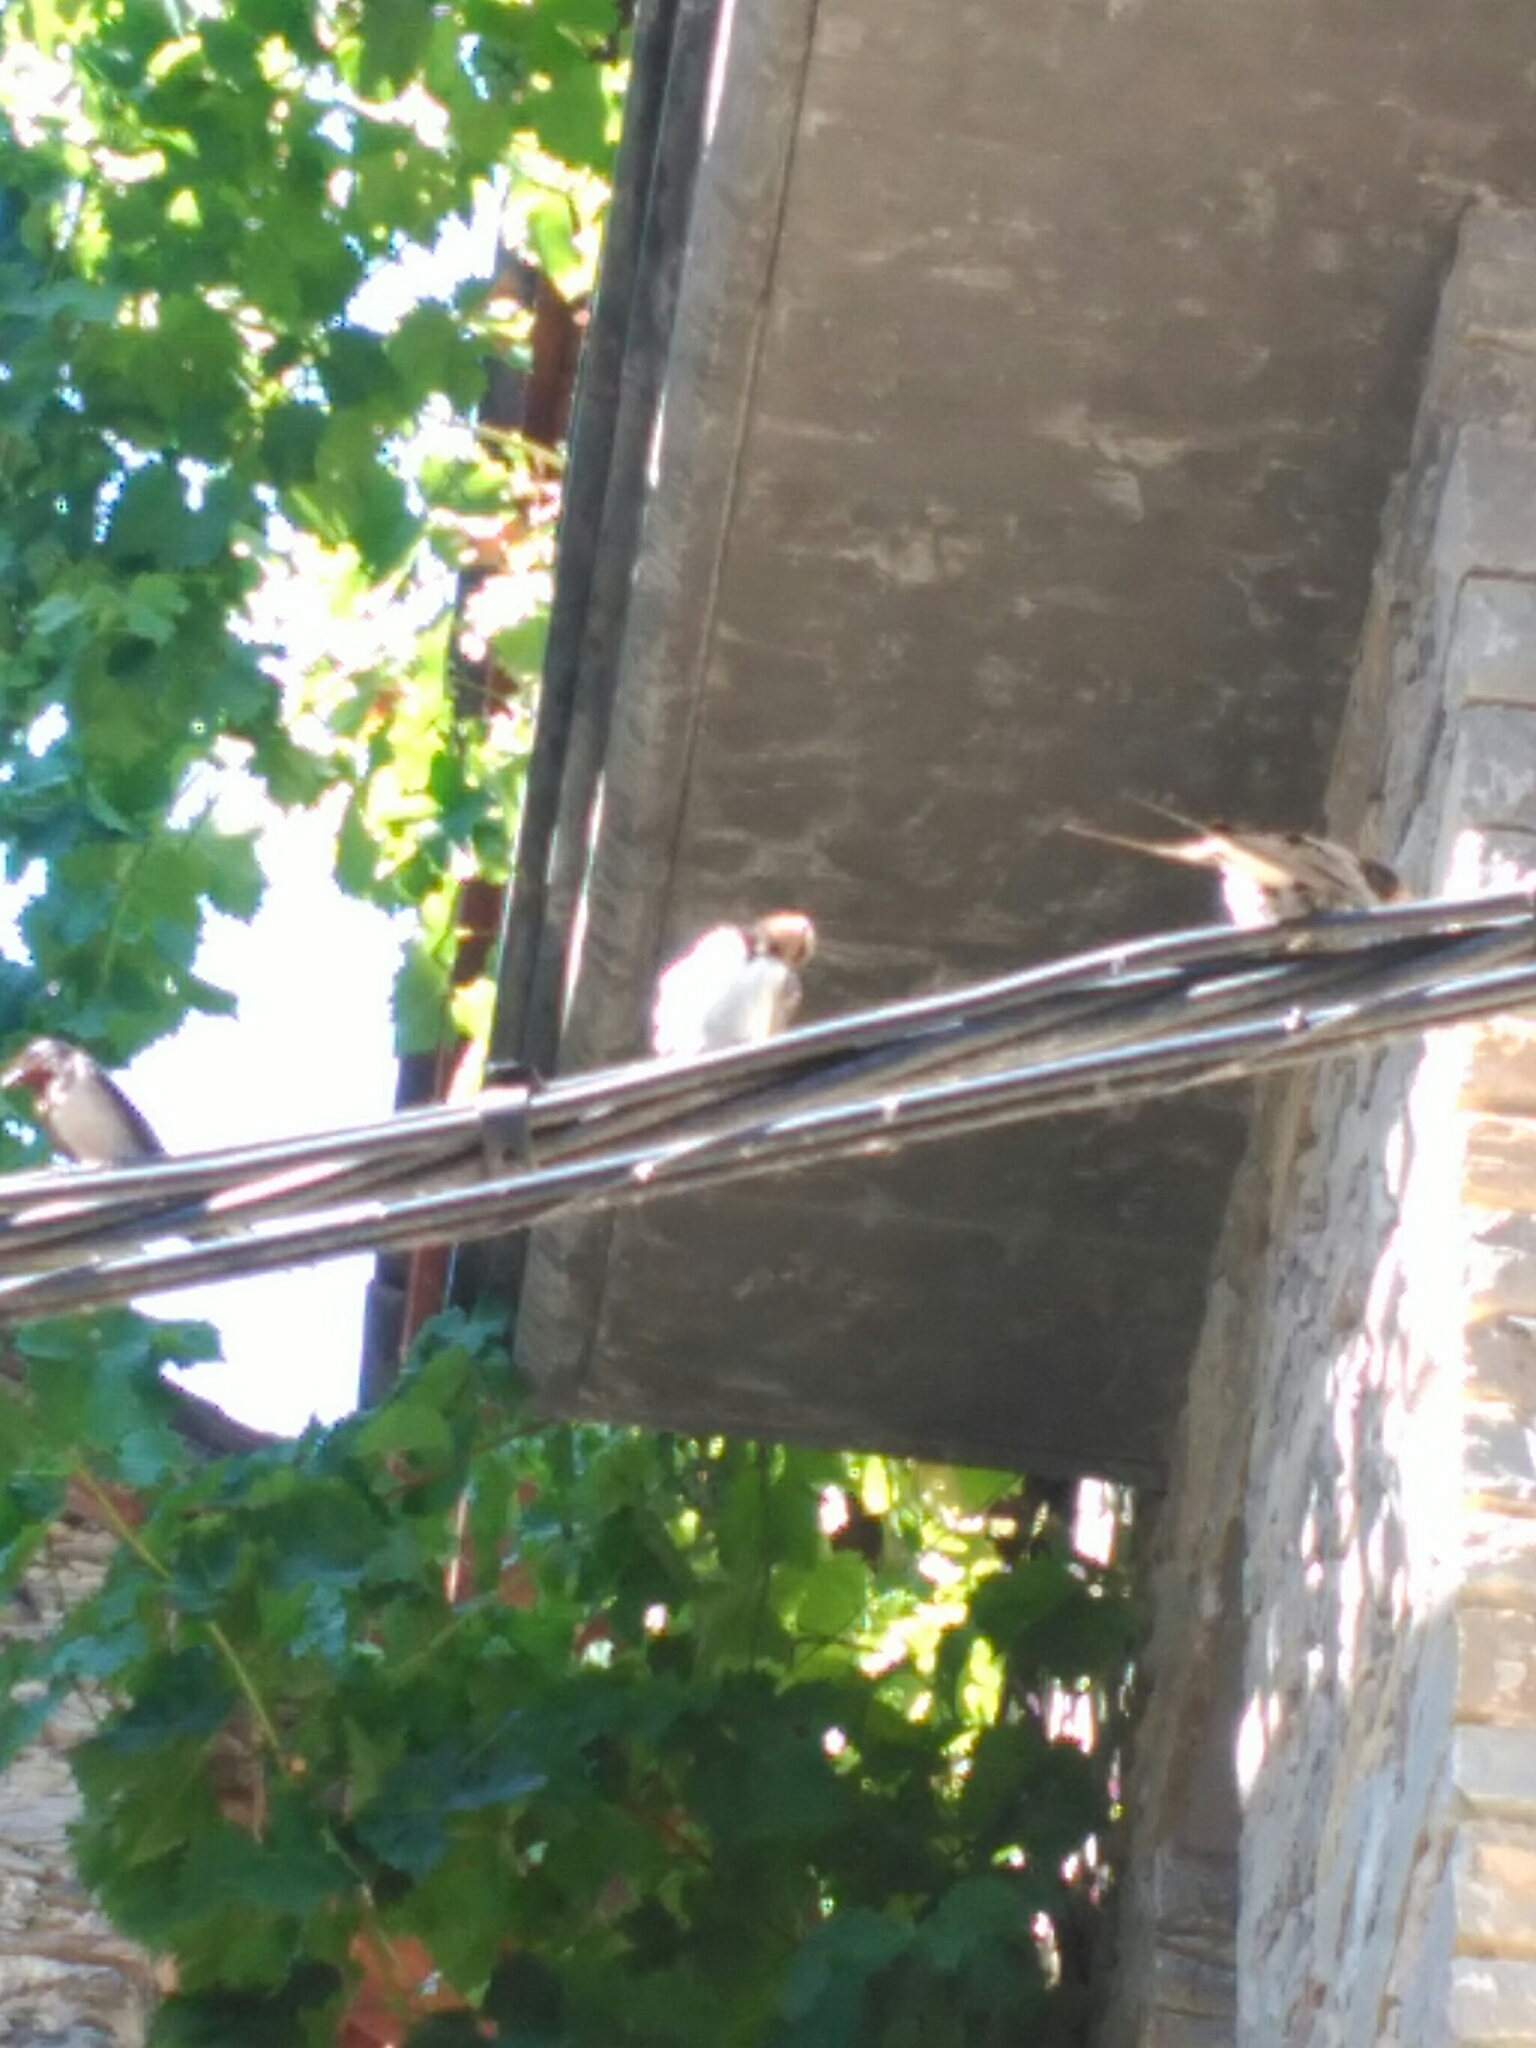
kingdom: Animalia
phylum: Chordata
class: Aves
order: Passeriformes
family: Hirundinidae
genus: Hirundo
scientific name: Hirundo rustica
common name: Barn swallow
